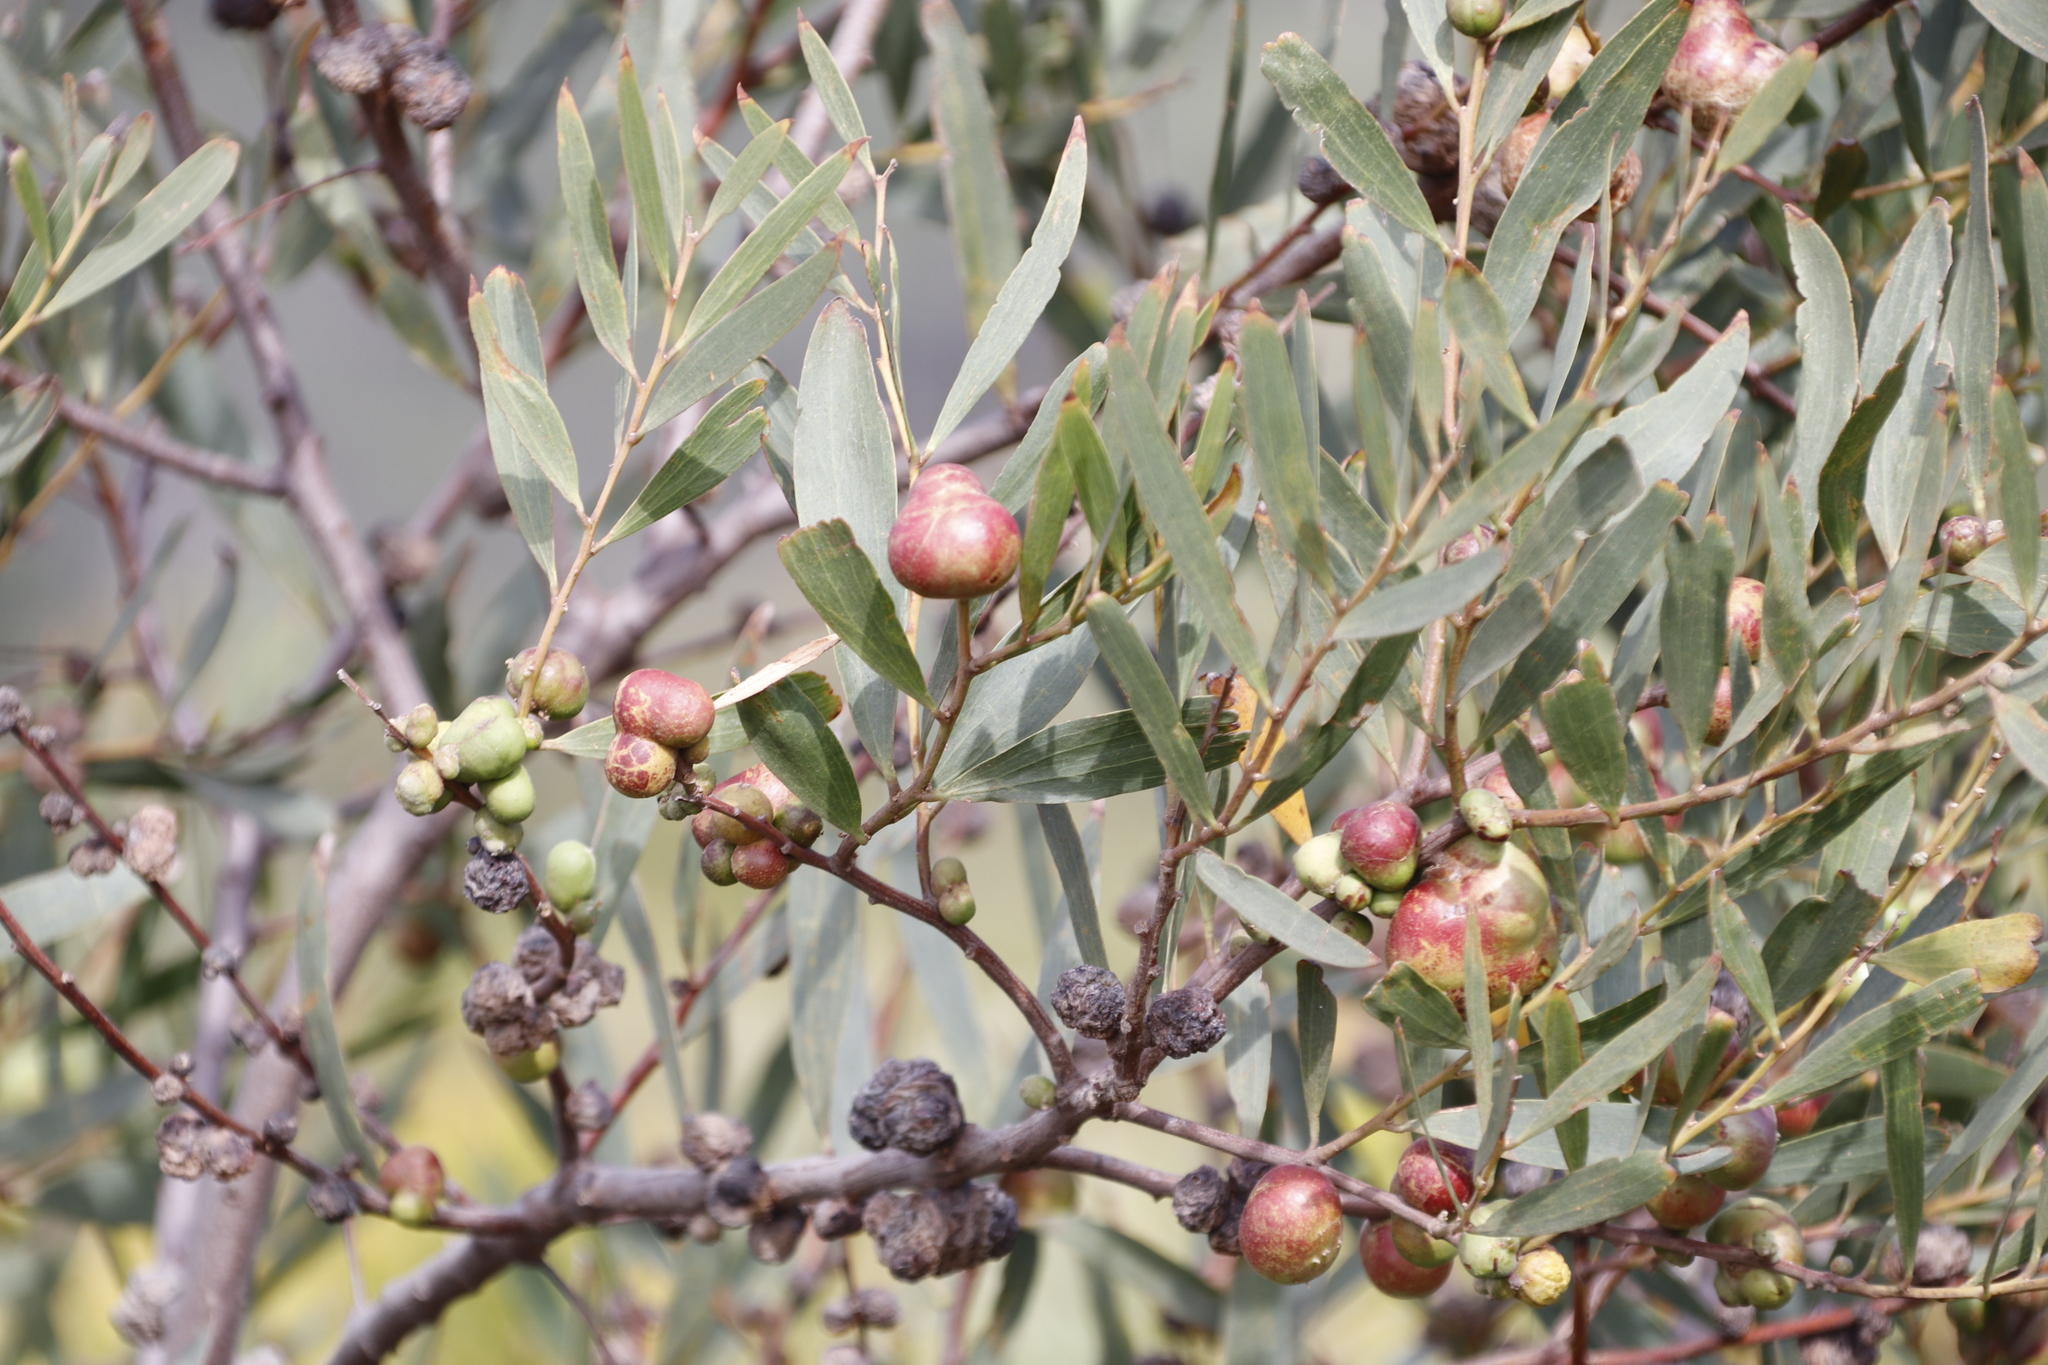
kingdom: Animalia
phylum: Arthropoda
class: Insecta
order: Hymenoptera
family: Pteromalidae
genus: Trichilogaster
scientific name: Trichilogaster acaciaelongifoliae
